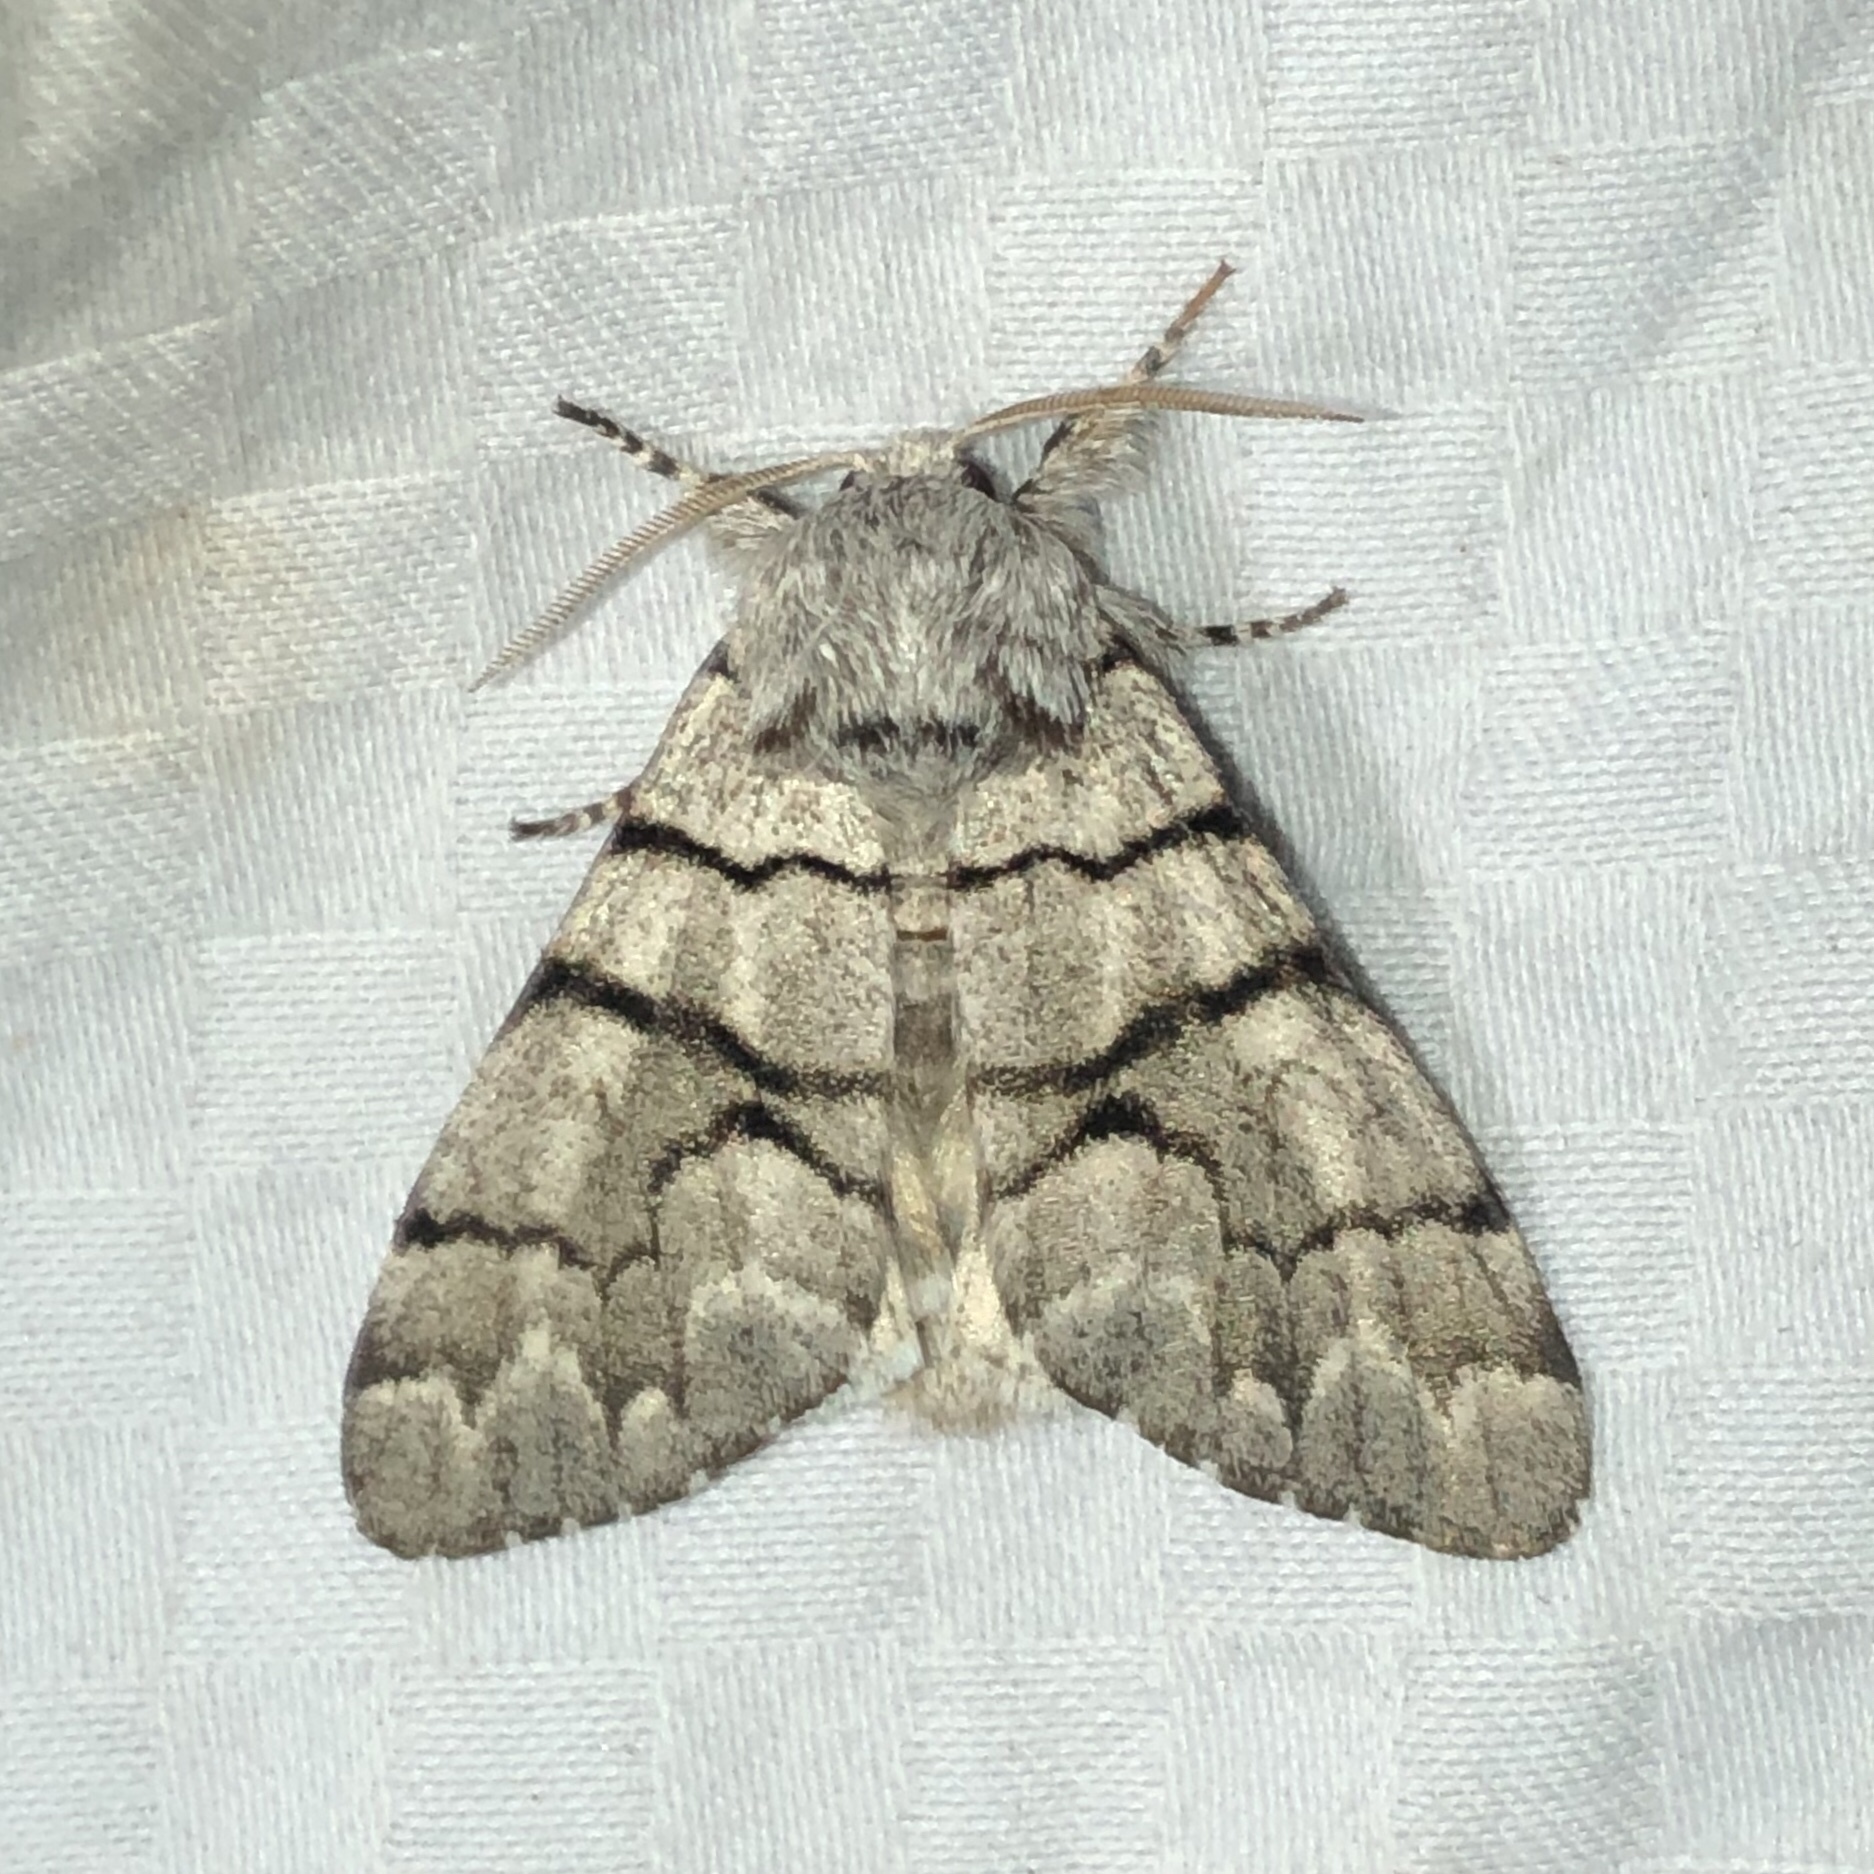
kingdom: Animalia
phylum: Arthropoda
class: Insecta
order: Lepidoptera
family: Noctuidae
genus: Panthea
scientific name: Panthea furcilla
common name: Eastern panthea moth
